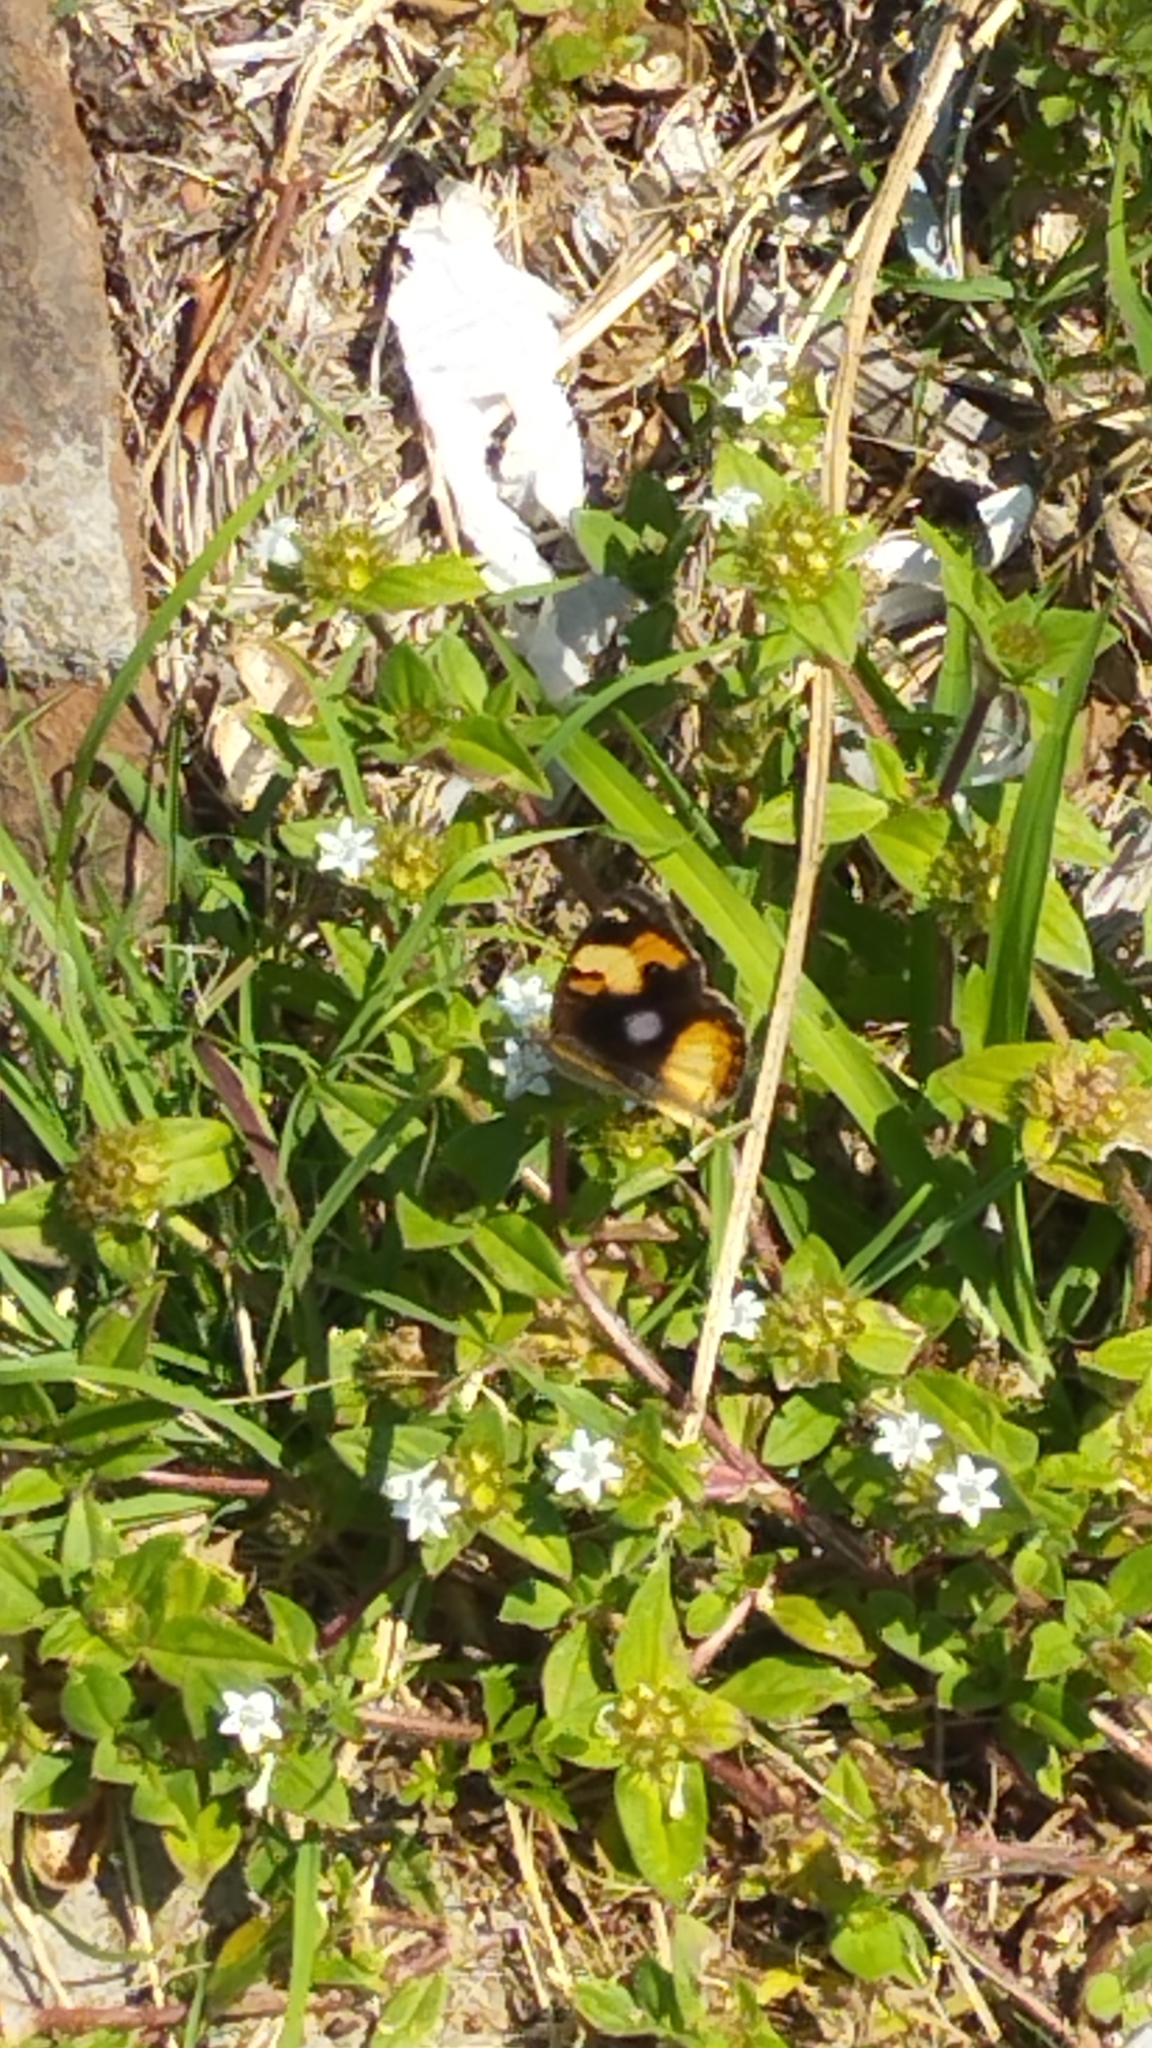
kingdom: Animalia
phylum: Arthropoda
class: Insecta
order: Lepidoptera
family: Nymphalidae
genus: Junonia
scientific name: Junonia hierta
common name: Yellow pansy
